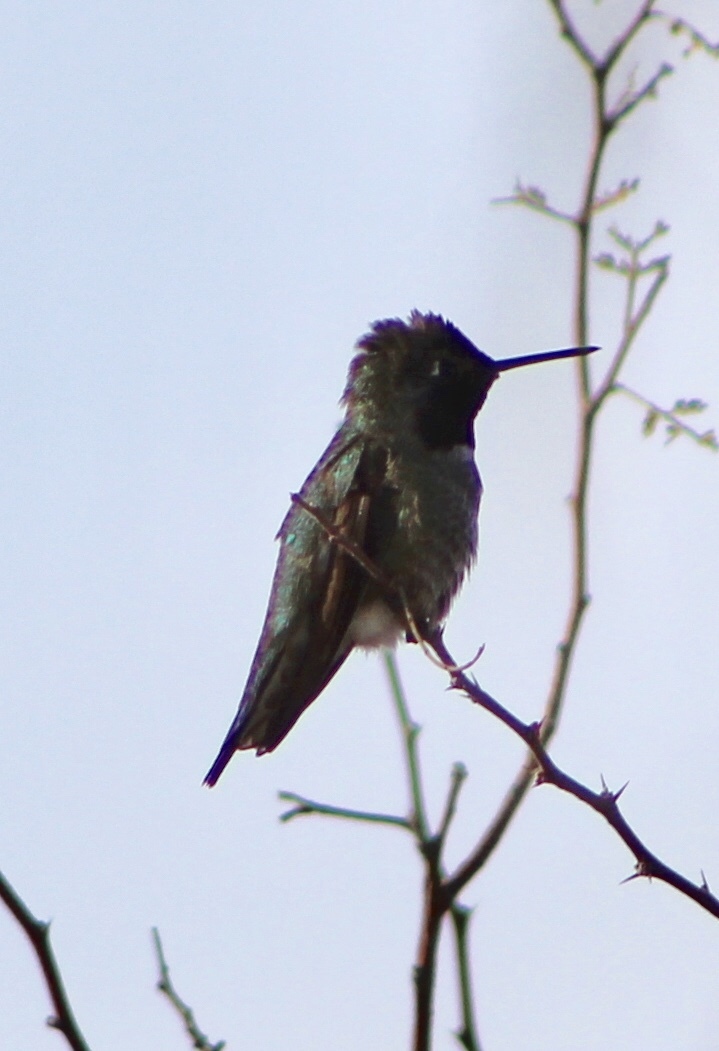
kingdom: Animalia
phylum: Chordata
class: Aves
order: Apodiformes
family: Trochilidae
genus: Calypte
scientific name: Calypte anna
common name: Anna's hummingbird
